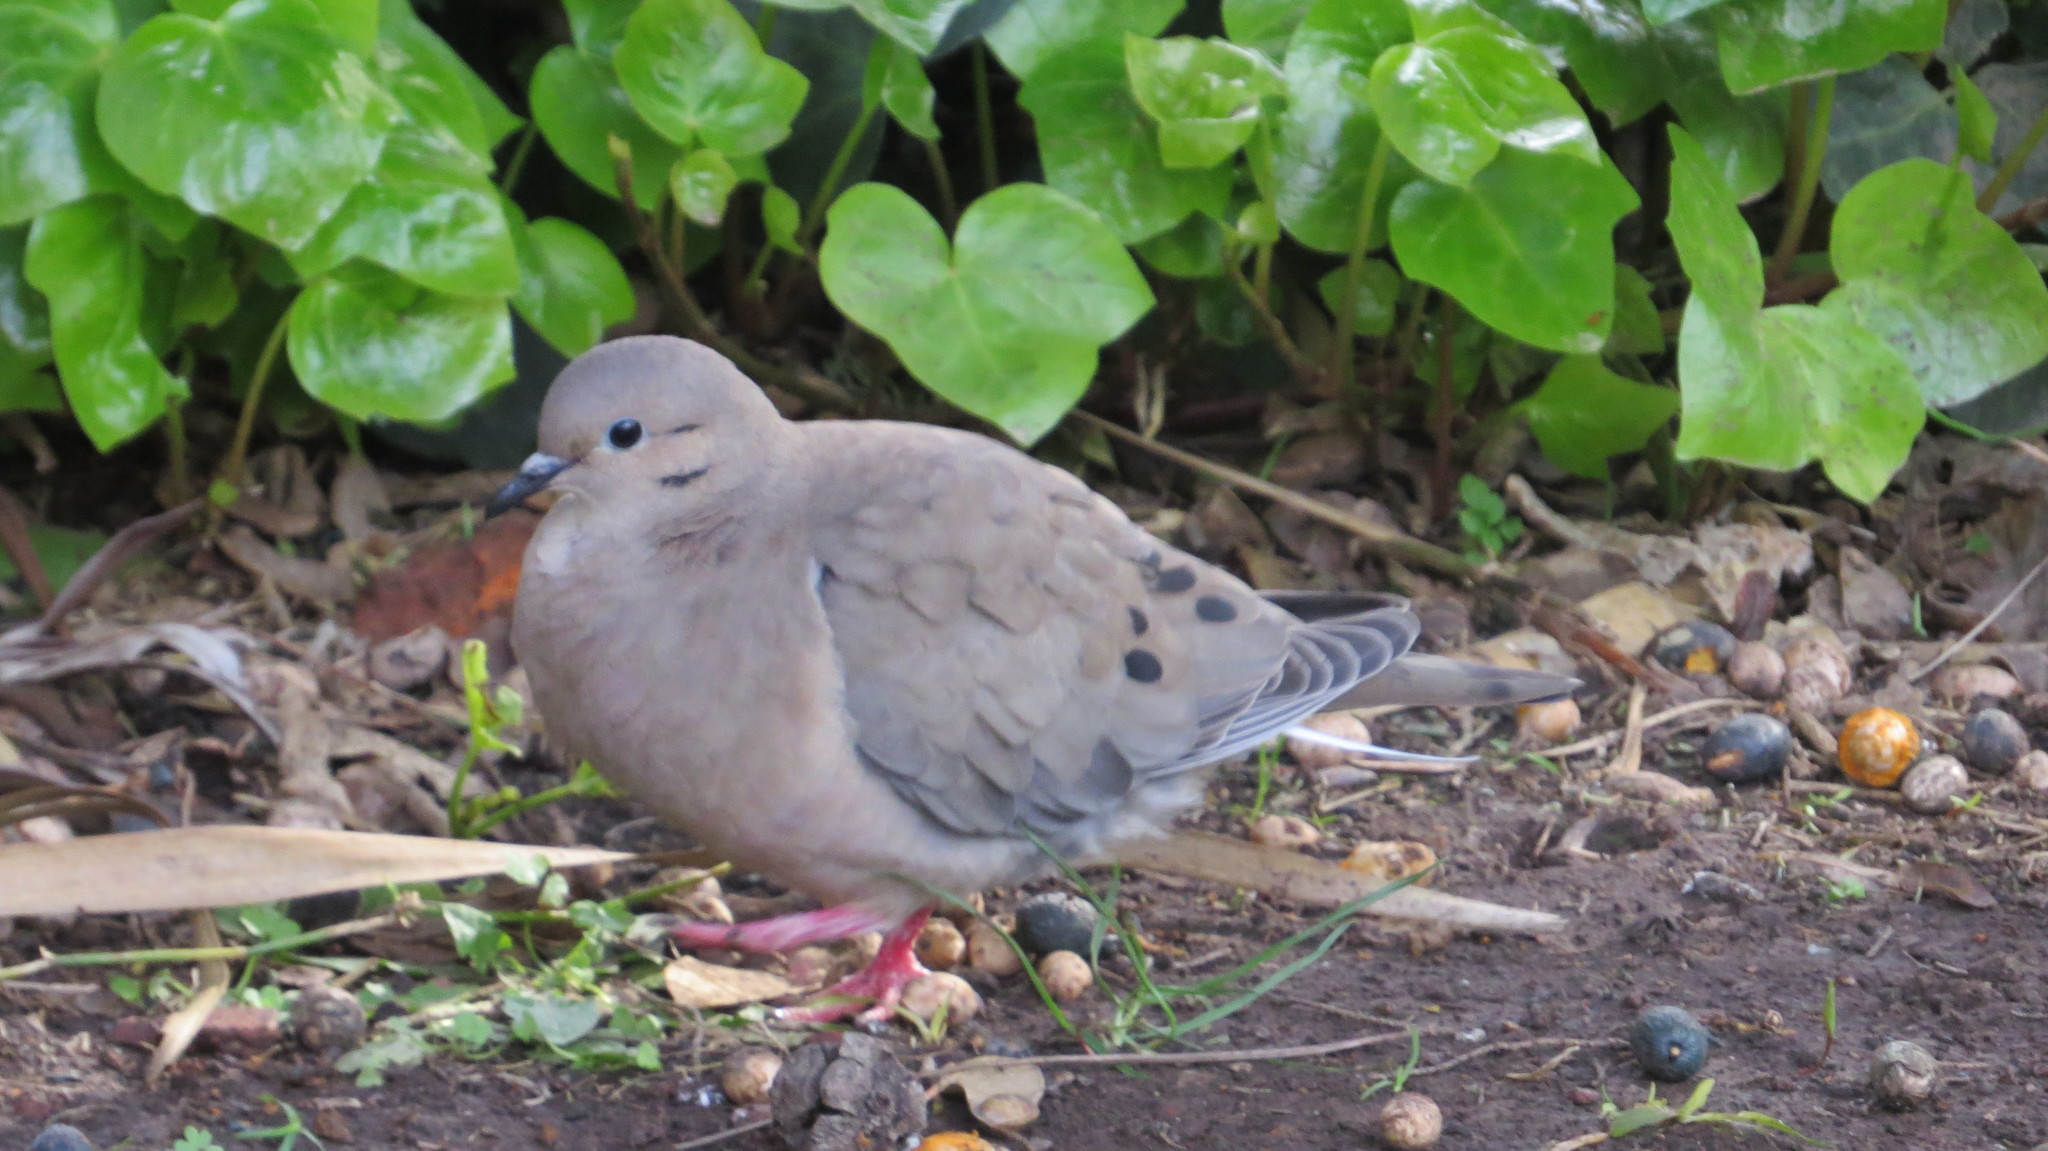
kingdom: Animalia
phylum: Chordata
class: Aves
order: Columbiformes
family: Columbidae
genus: Zenaida
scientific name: Zenaida auriculata
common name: Eared dove
